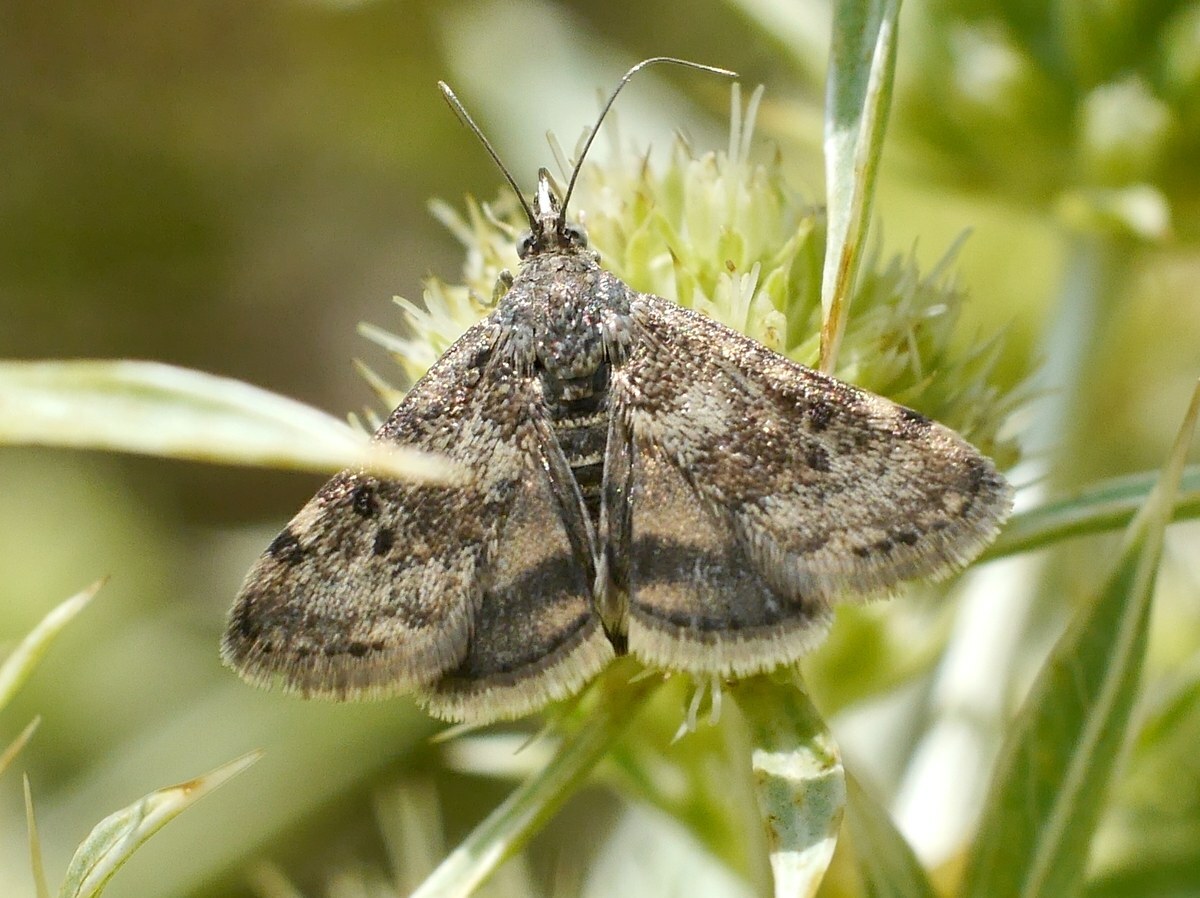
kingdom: Animalia
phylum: Arthropoda
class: Insecta
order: Lepidoptera
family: Crambidae
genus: Noctuelia
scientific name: Noctuelia Aporodes floralis
